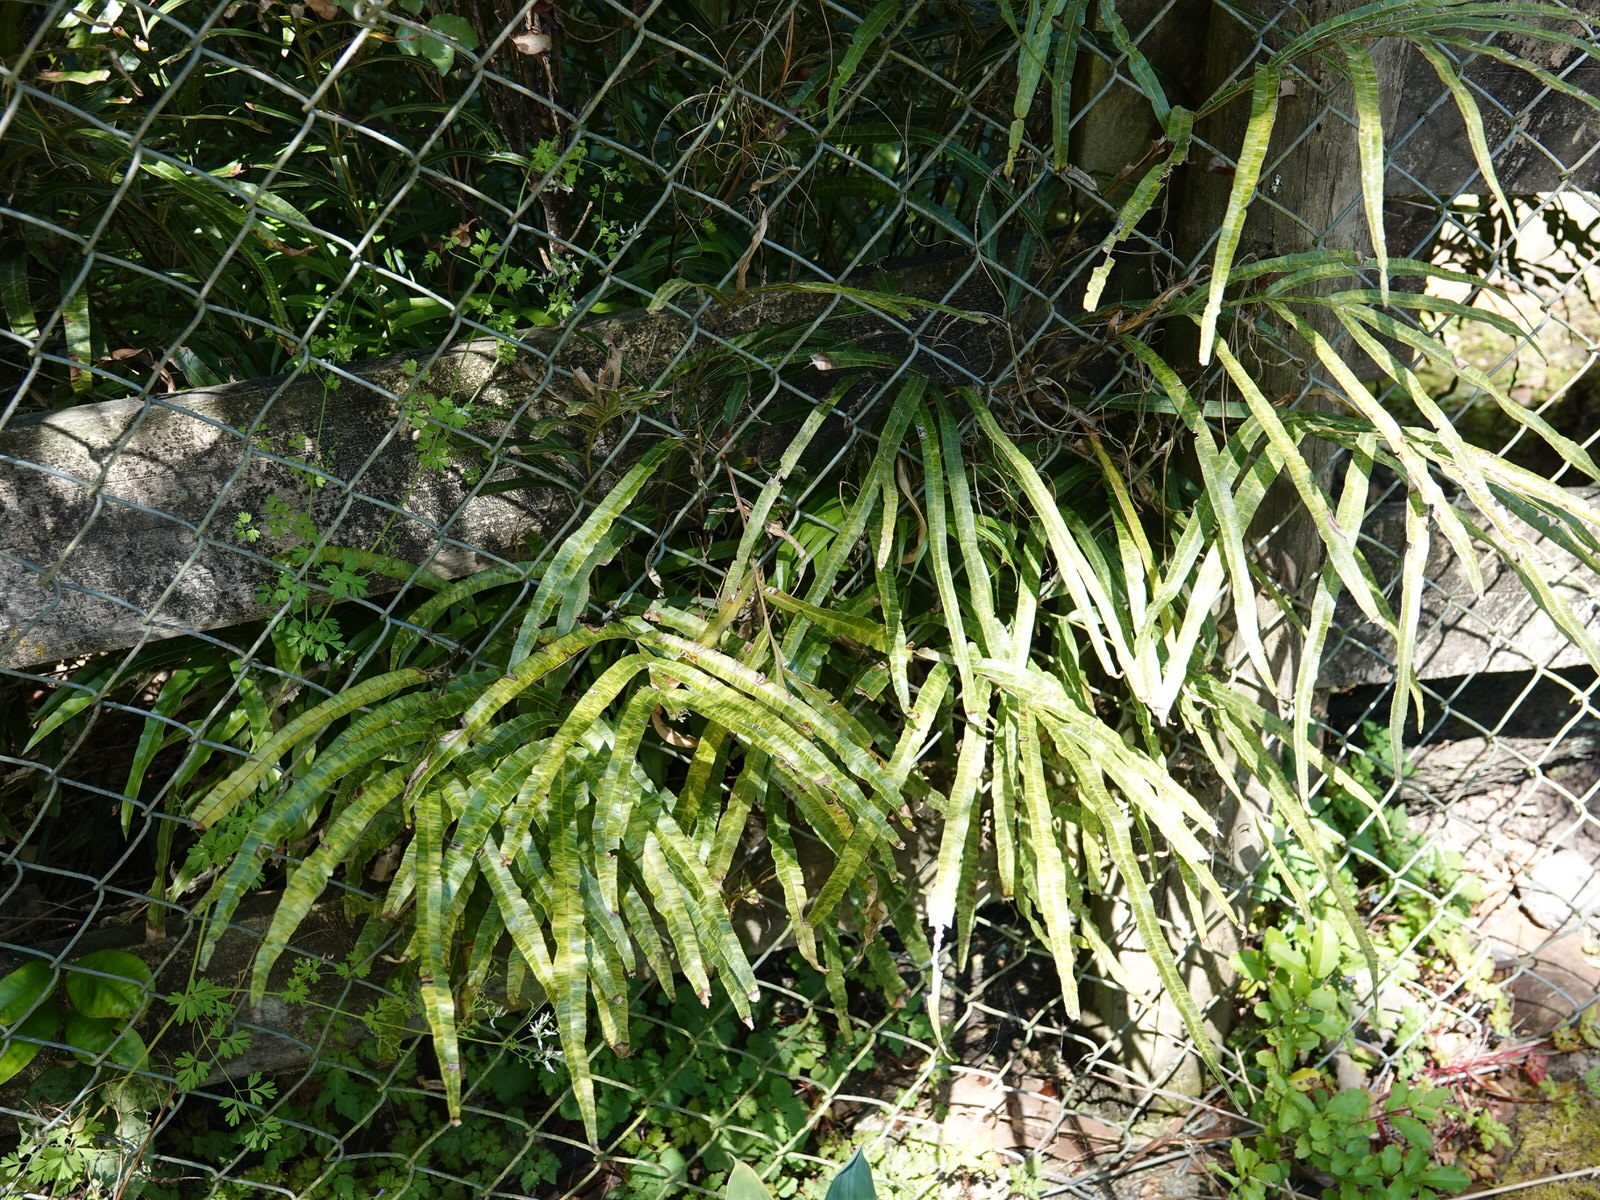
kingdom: Plantae
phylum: Tracheophyta
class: Polypodiopsida
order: Polypodiales
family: Pteridaceae
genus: Pteris
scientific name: Pteris cretica
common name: Ribbon fern
